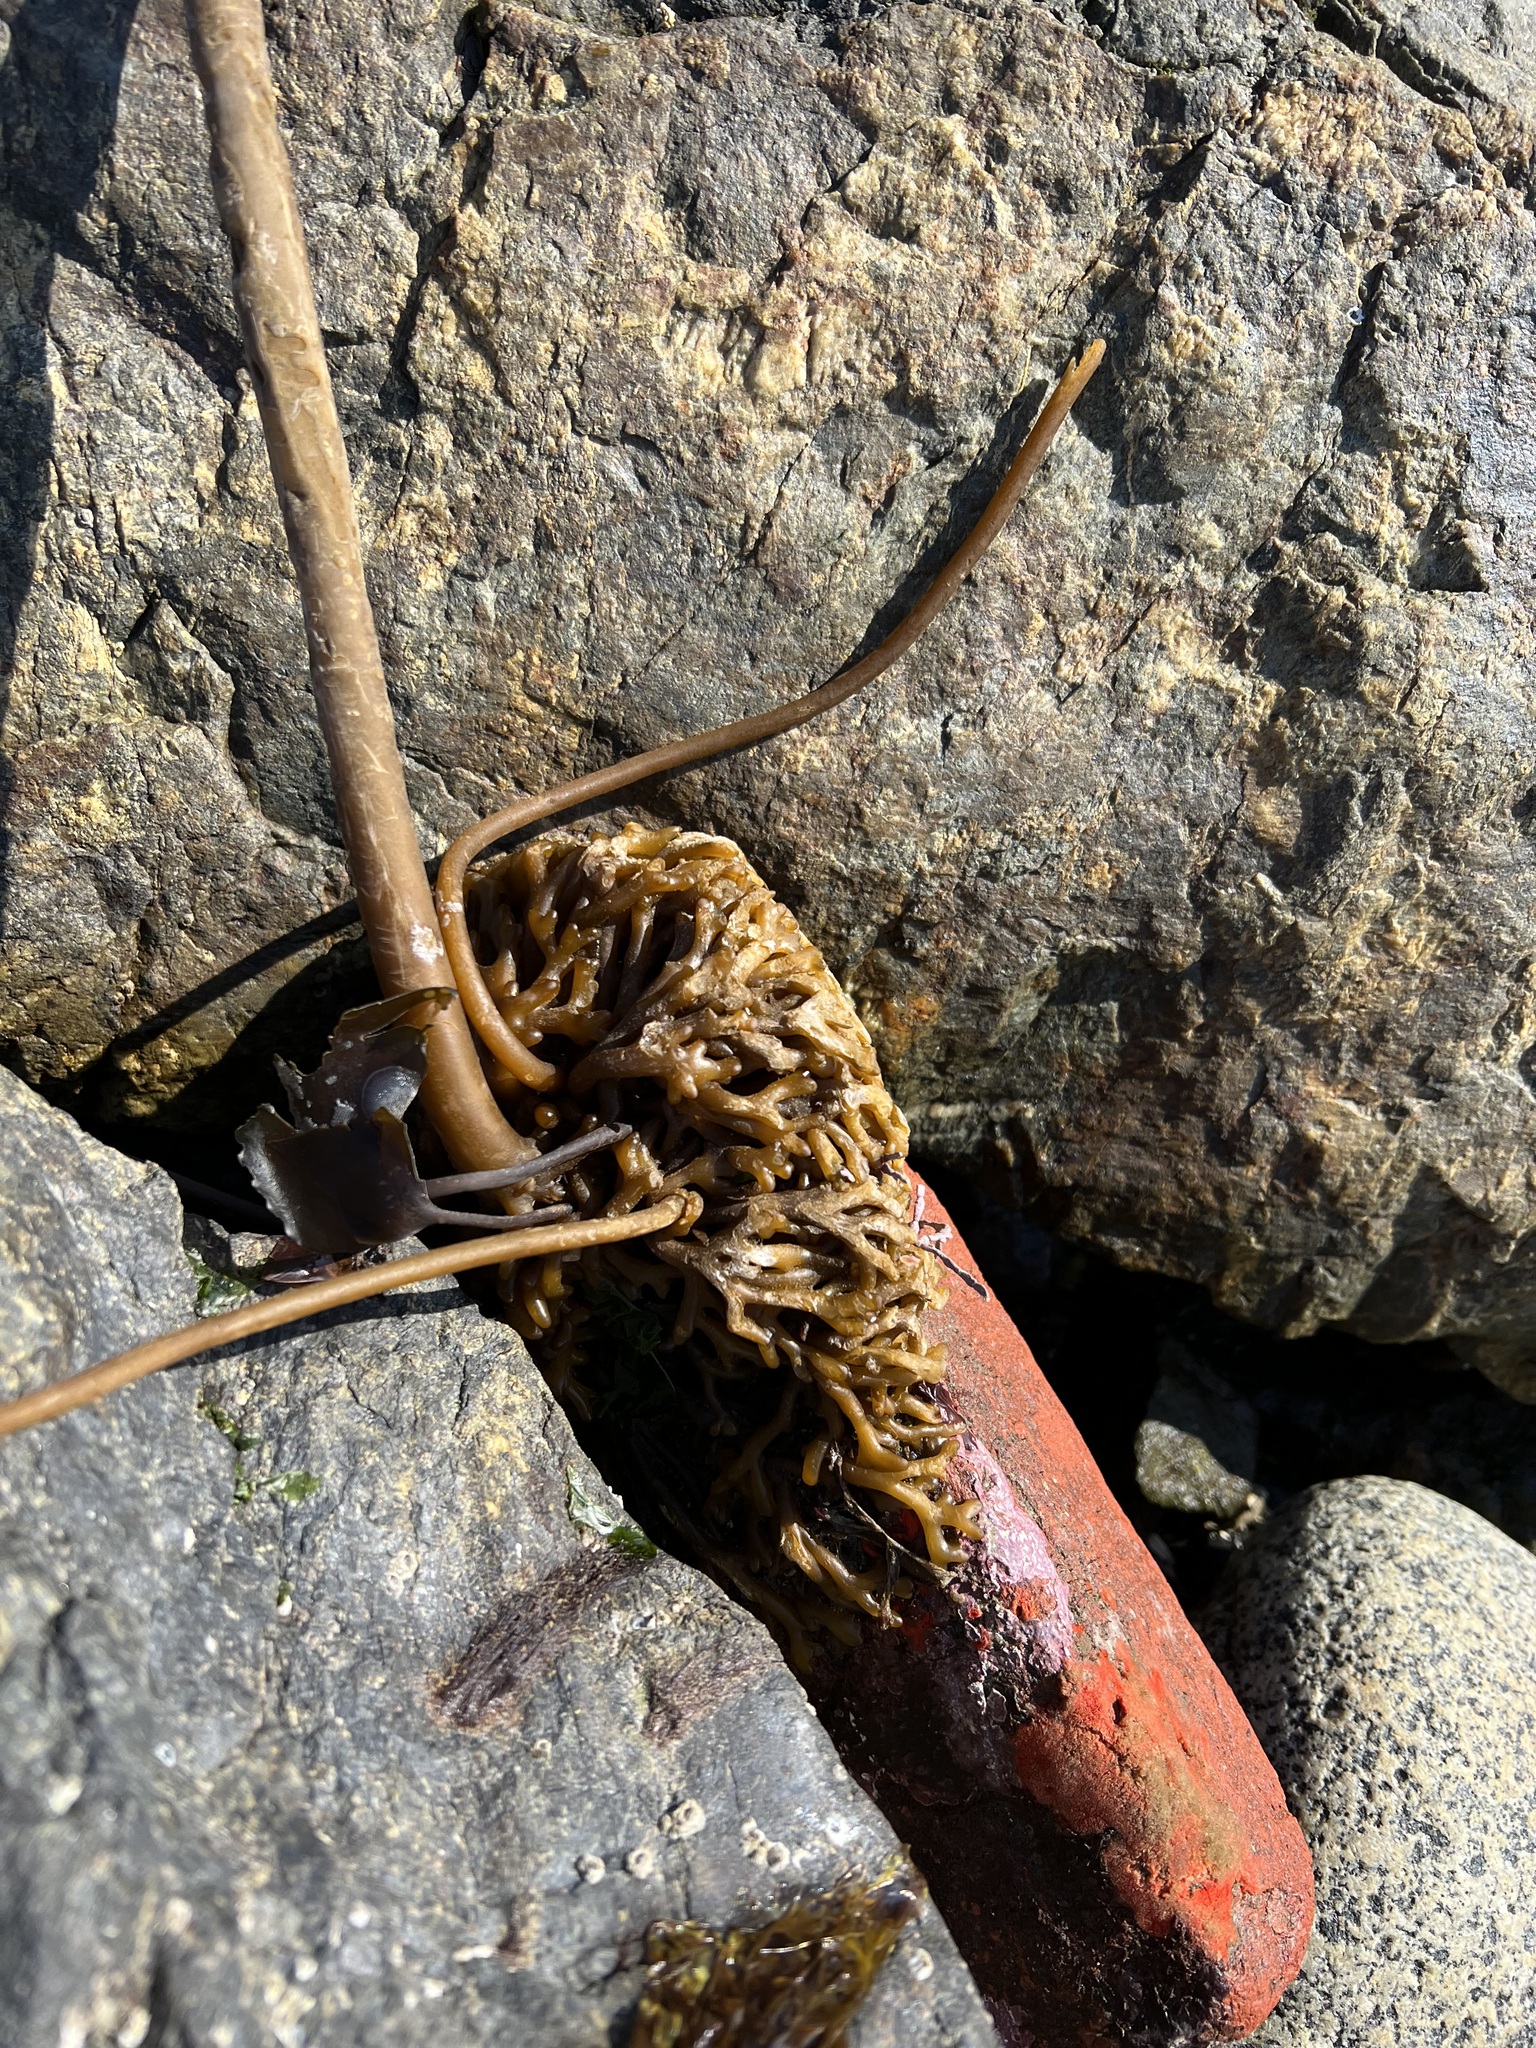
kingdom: Chromista
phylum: Ochrophyta
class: Phaeophyceae
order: Laminariales
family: Laminariaceae
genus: Nereocystis
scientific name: Nereocystis luetkeana
